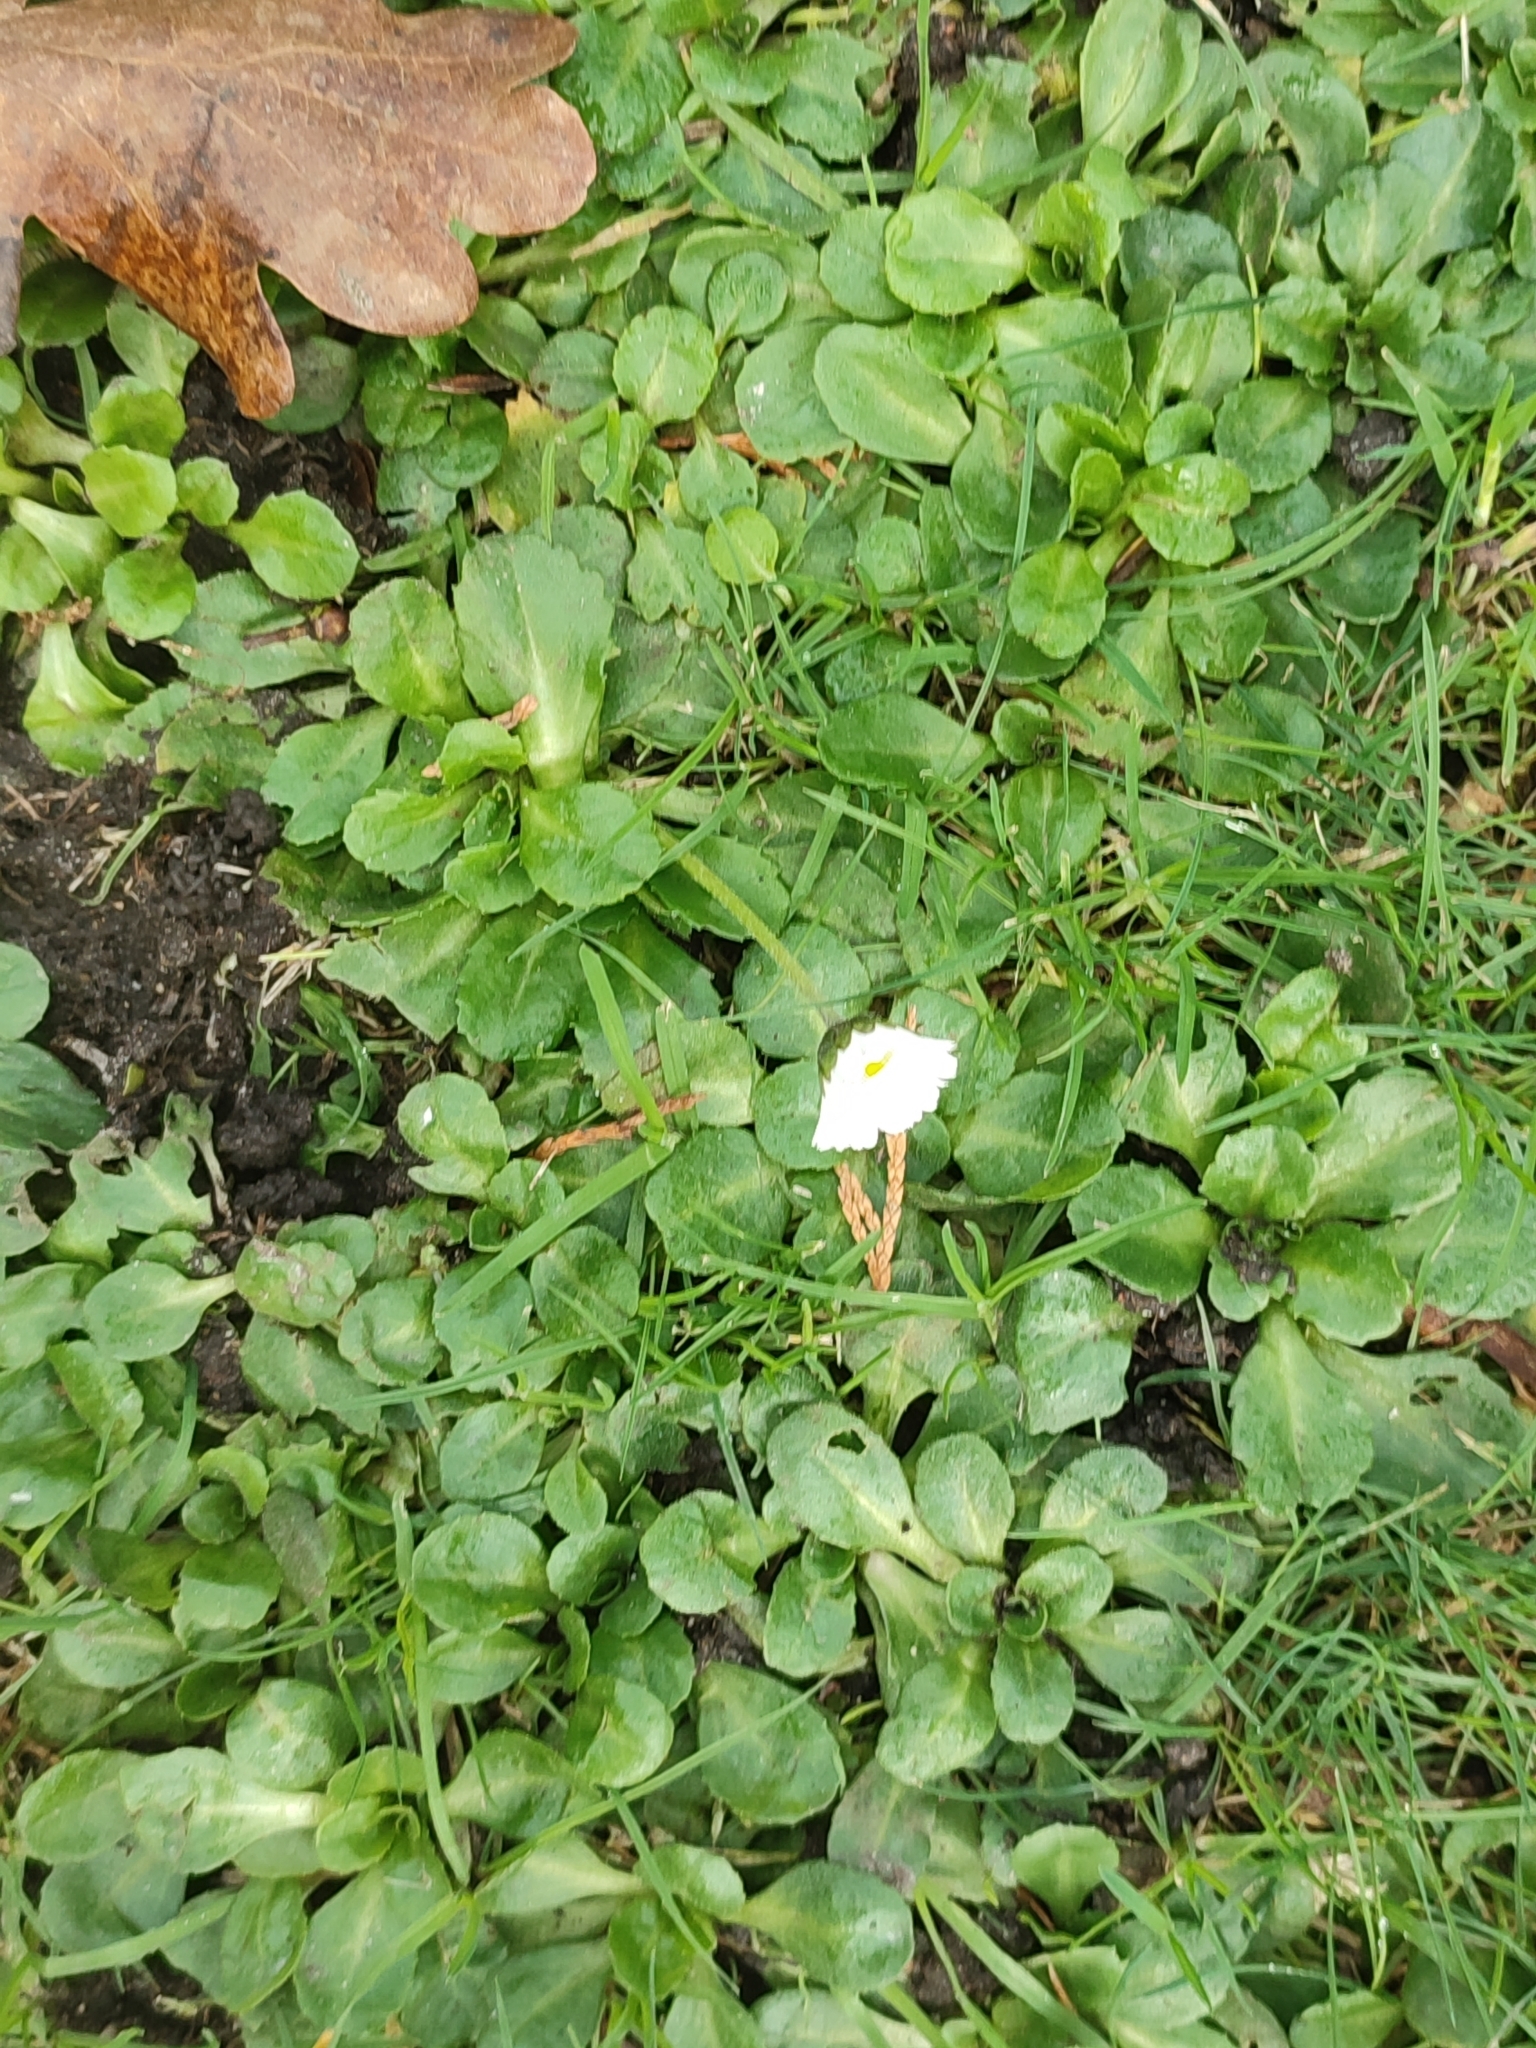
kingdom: Plantae
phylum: Tracheophyta
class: Magnoliopsida
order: Asterales
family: Asteraceae
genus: Bellis
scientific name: Bellis perennis
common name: Lawndaisy
